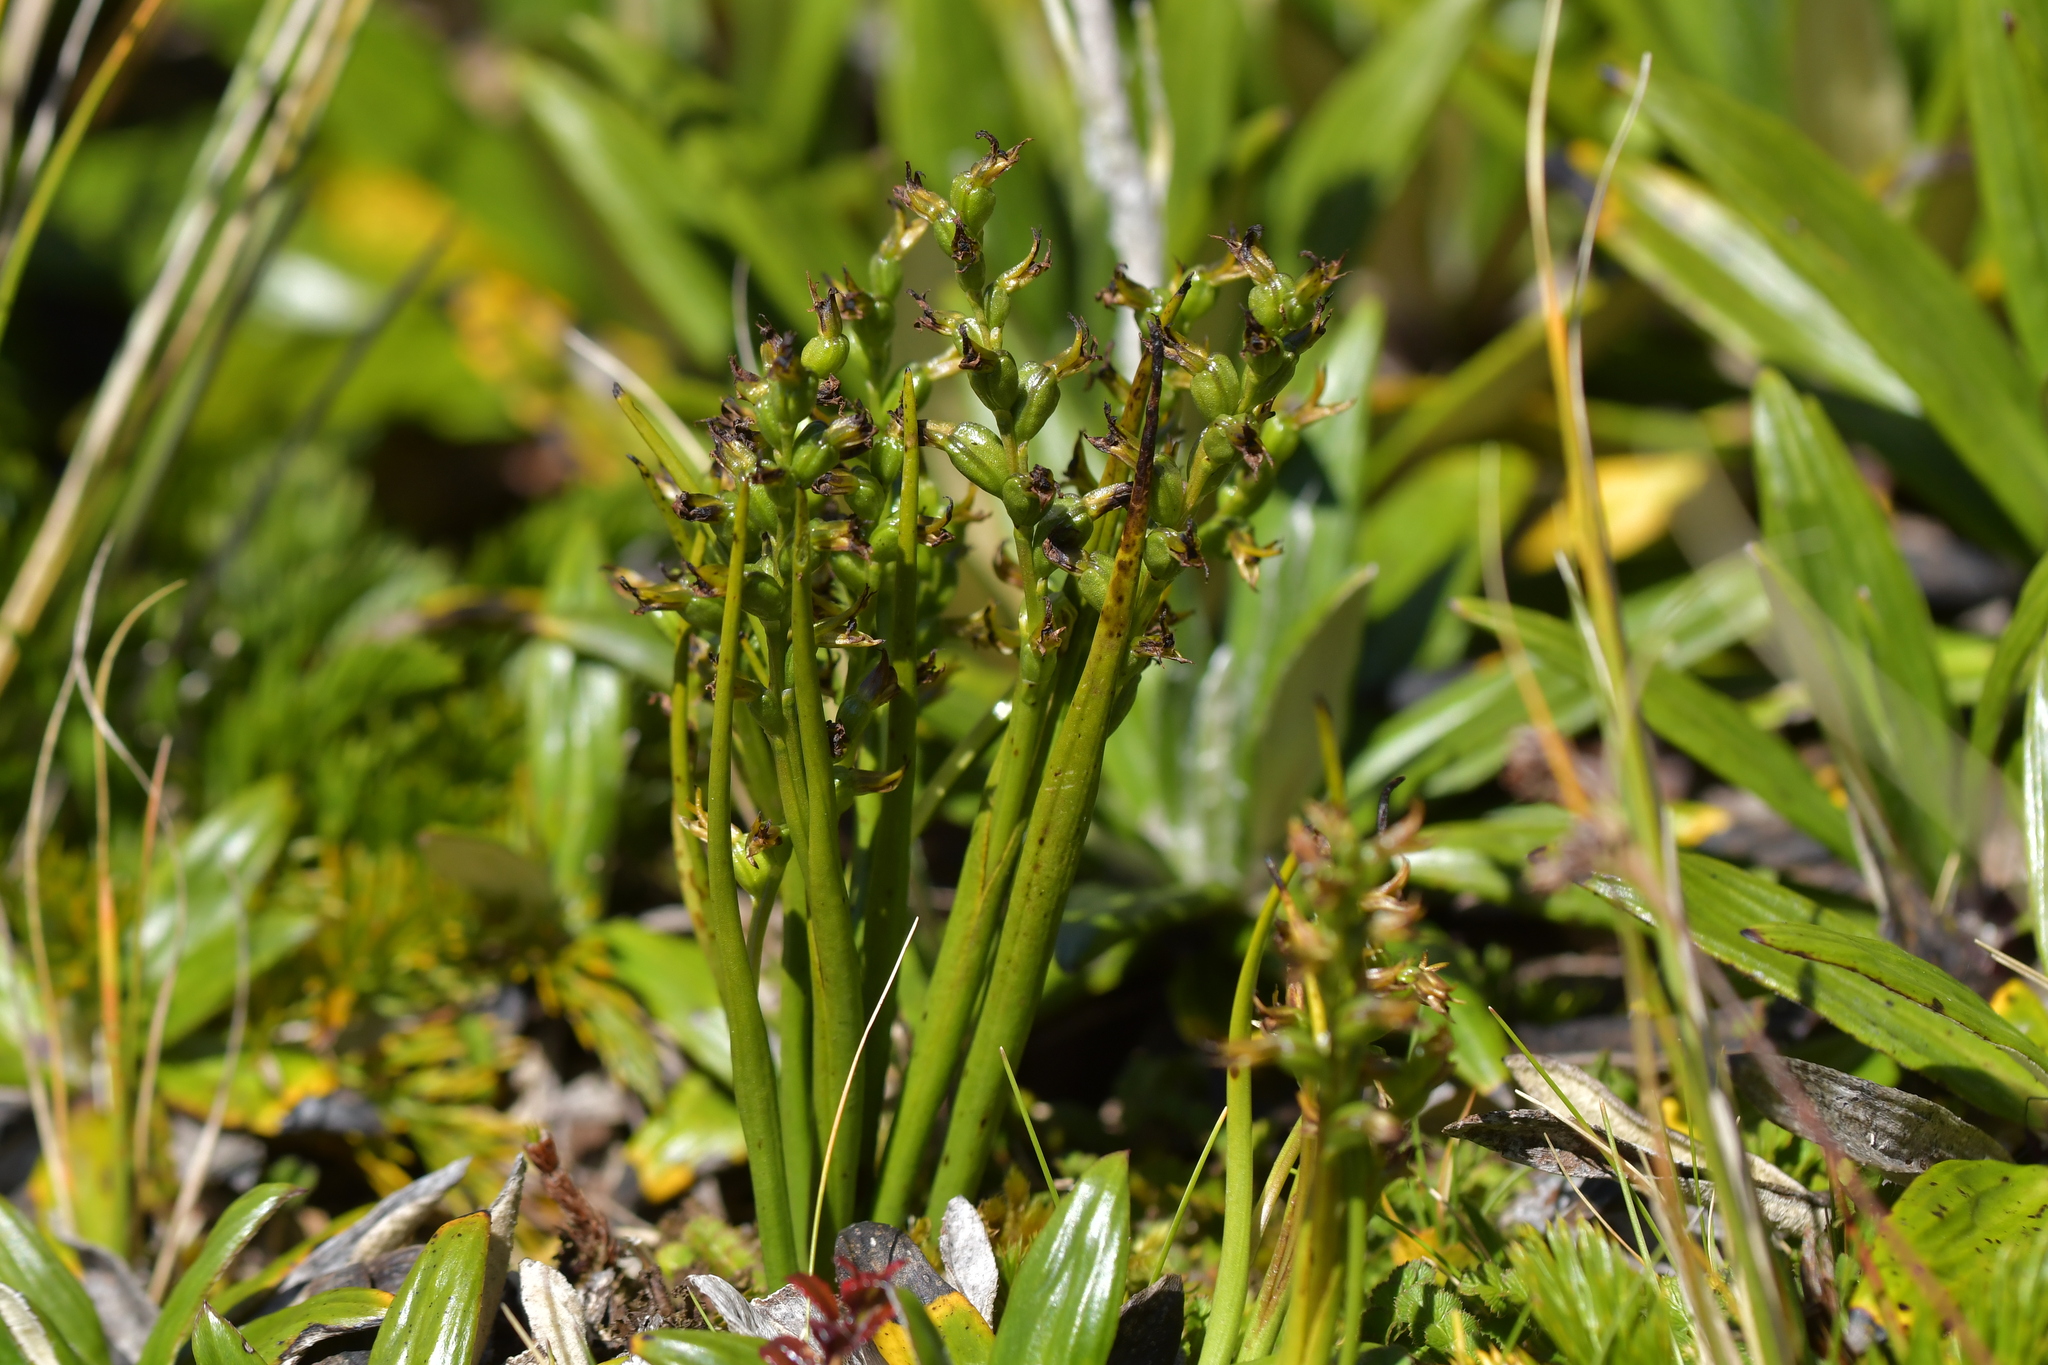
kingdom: Plantae
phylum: Tracheophyta
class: Liliopsida
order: Asparagales
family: Orchidaceae
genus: Prasophyllum
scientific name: Prasophyllum colensoi
